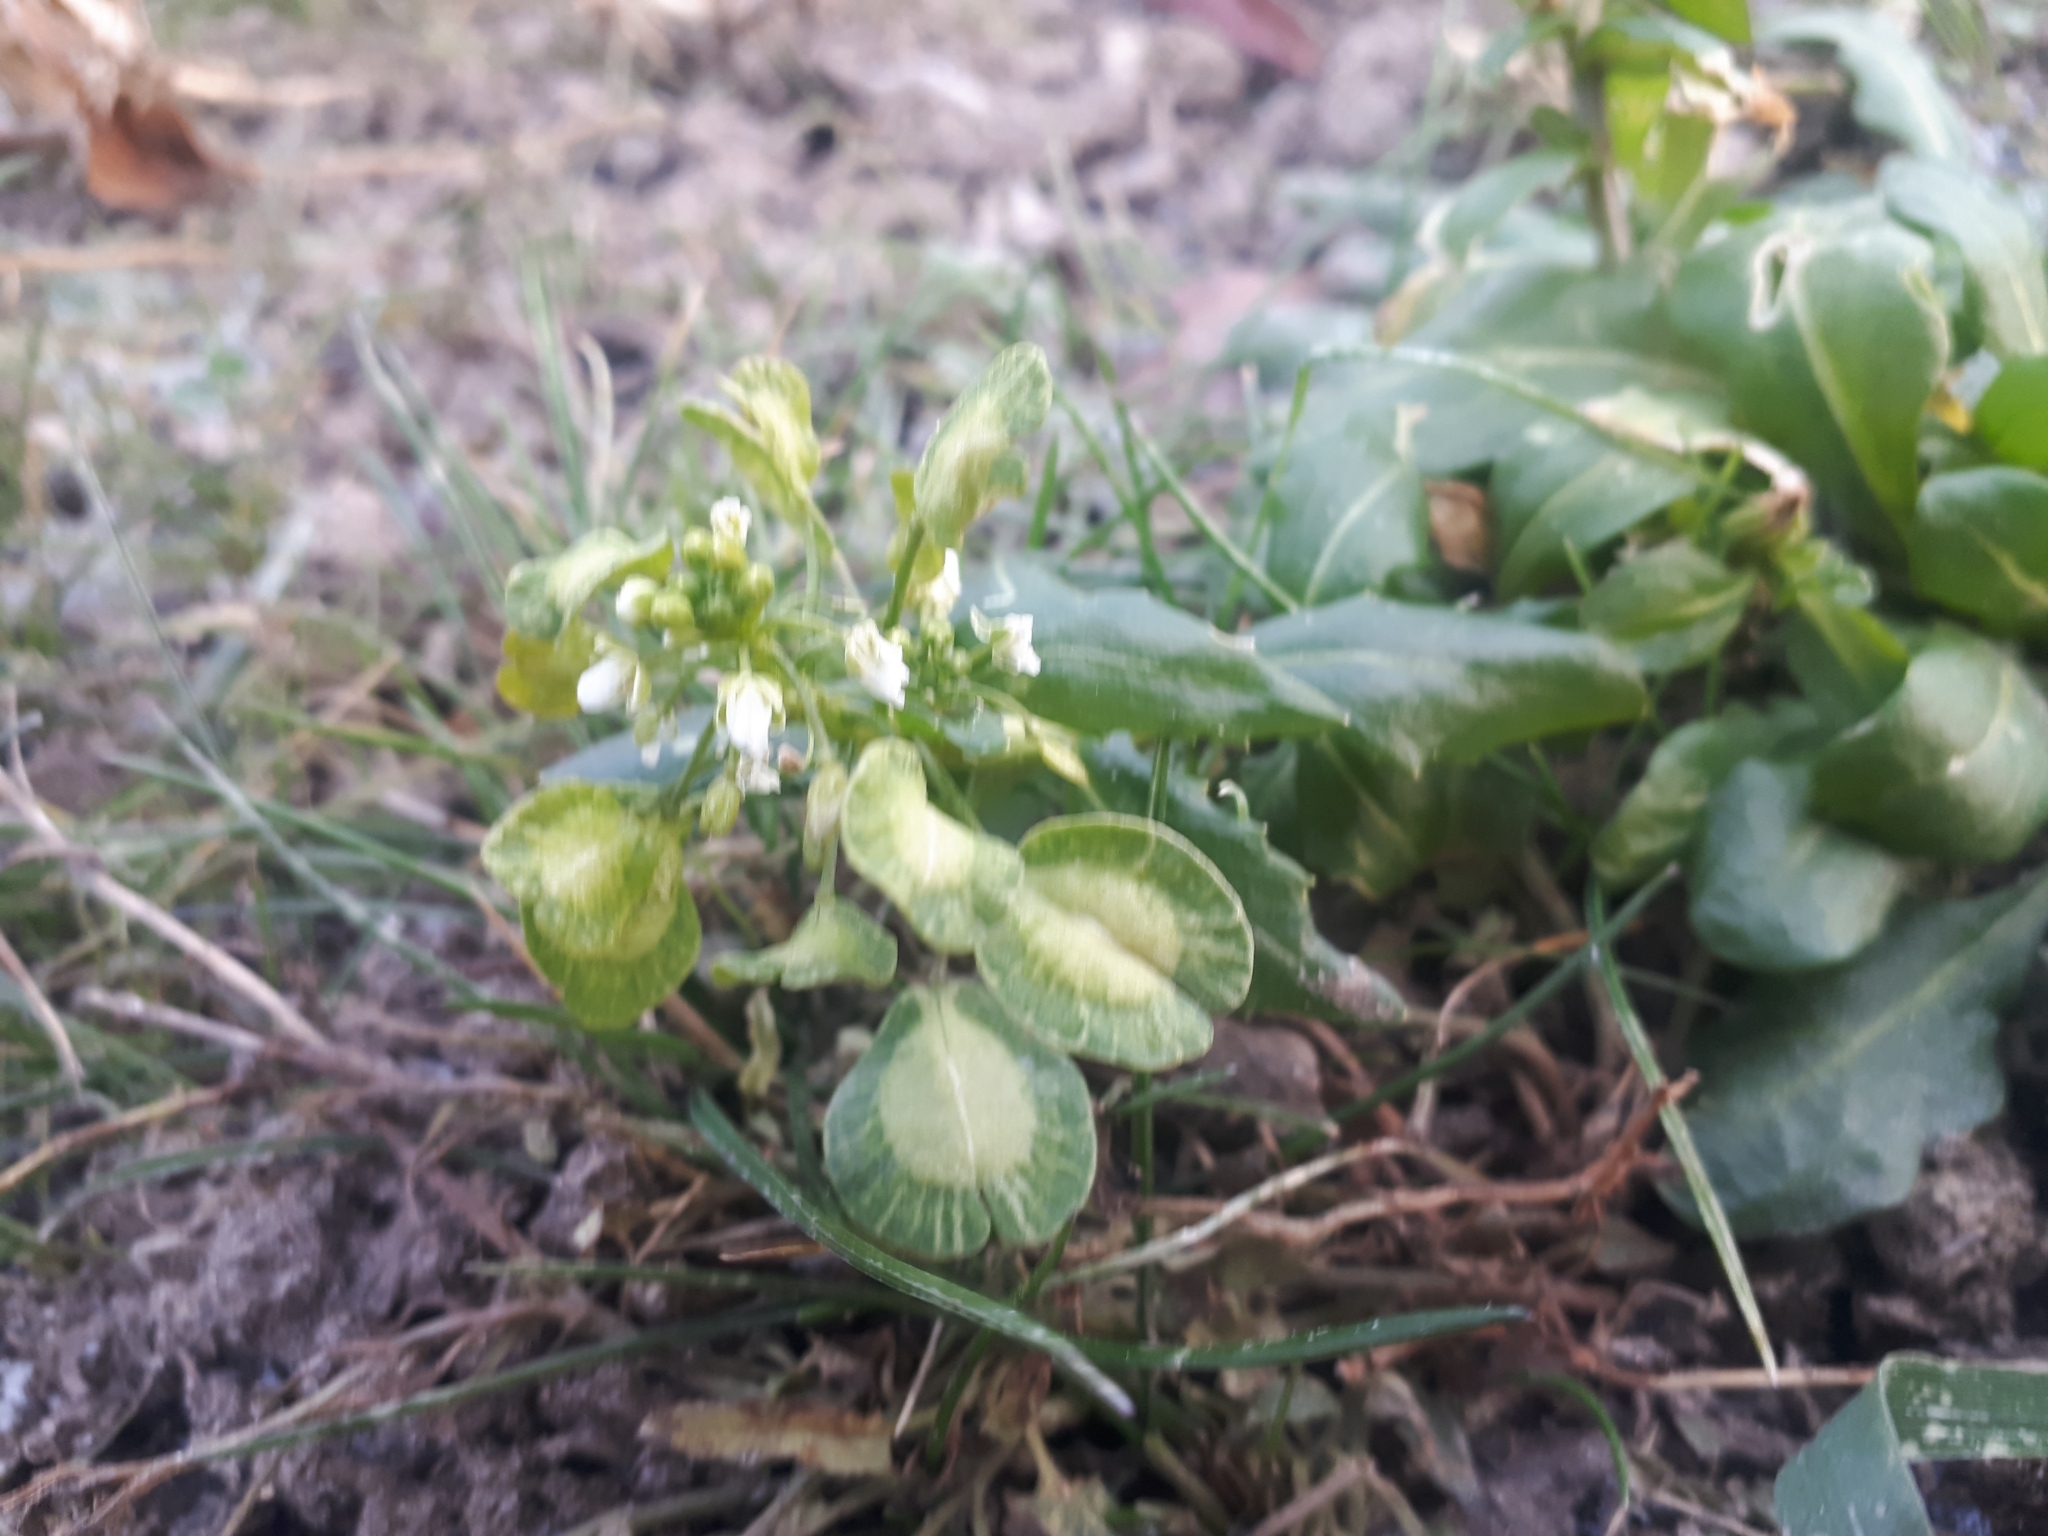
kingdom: Plantae
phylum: Tracheophyta
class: Magnoliopsida
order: Brassicales
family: Brassicaceae
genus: Thlaspi
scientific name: Thlaspi arvense
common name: Field pennycress
